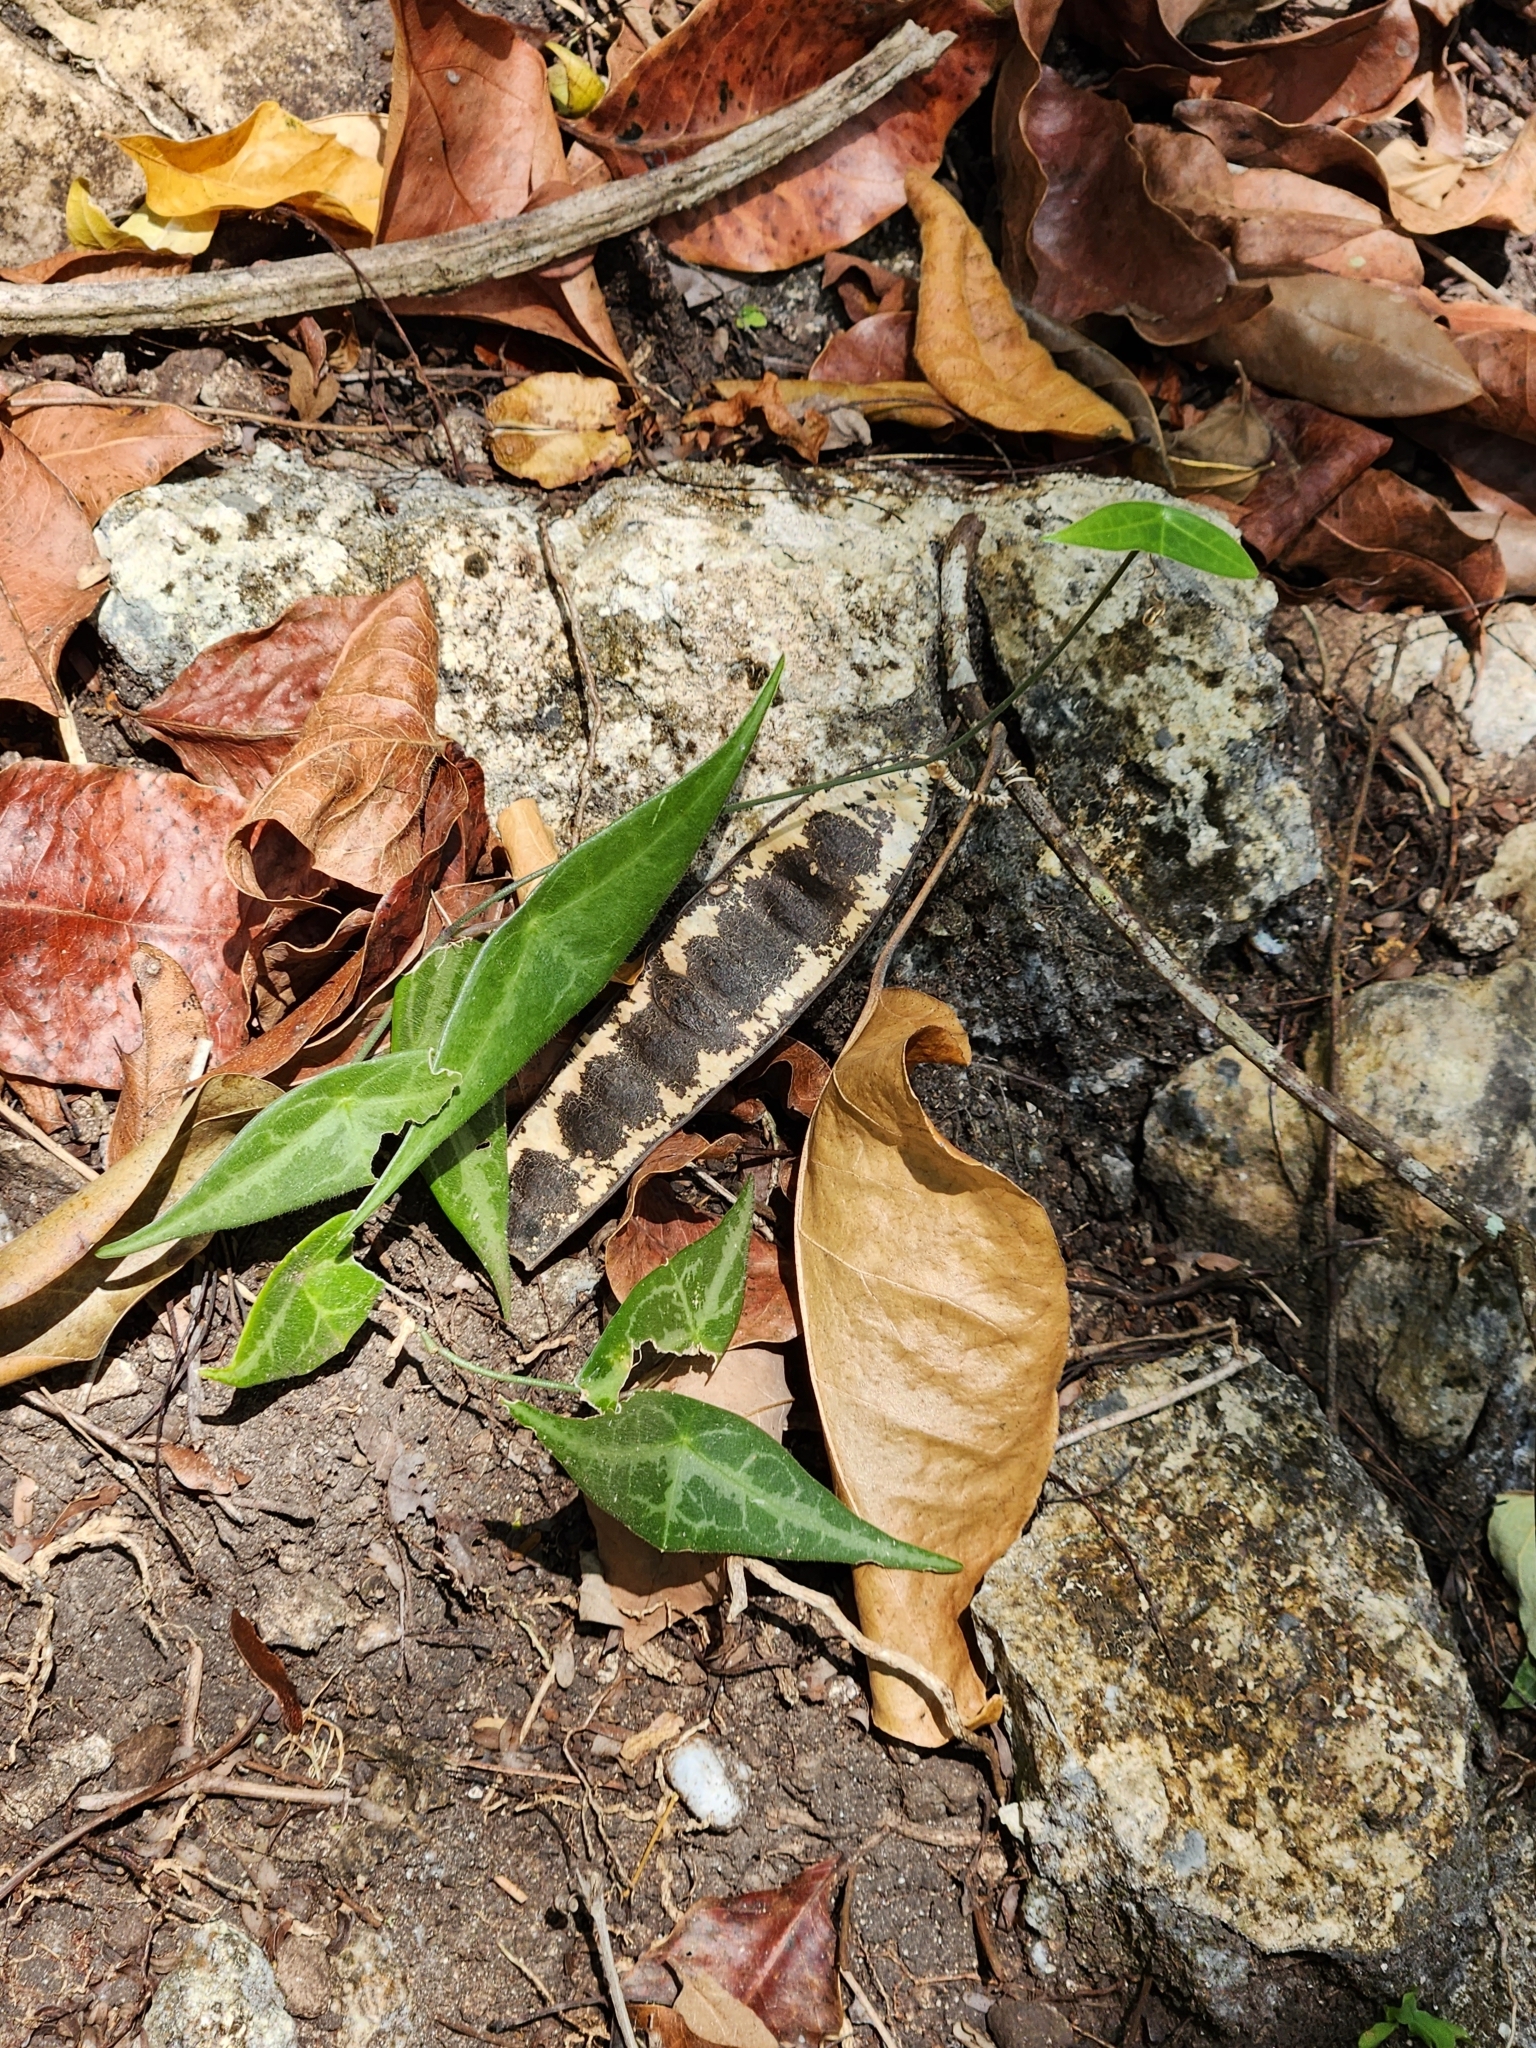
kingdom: Plantae
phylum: Tracheophyta
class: Magnoliopsida
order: Malpighiales
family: Passifloraceae
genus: Passiflora
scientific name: Passiflora xiikzodz
